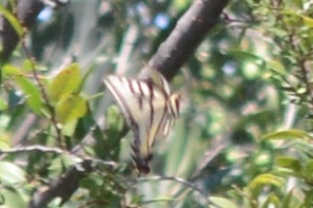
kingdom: Animalia
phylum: Arthropoda
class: Insecta
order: Lepidoptera
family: Papilionidae
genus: Papilio
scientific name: Papilio rutulus
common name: Western tiger swallowtail
